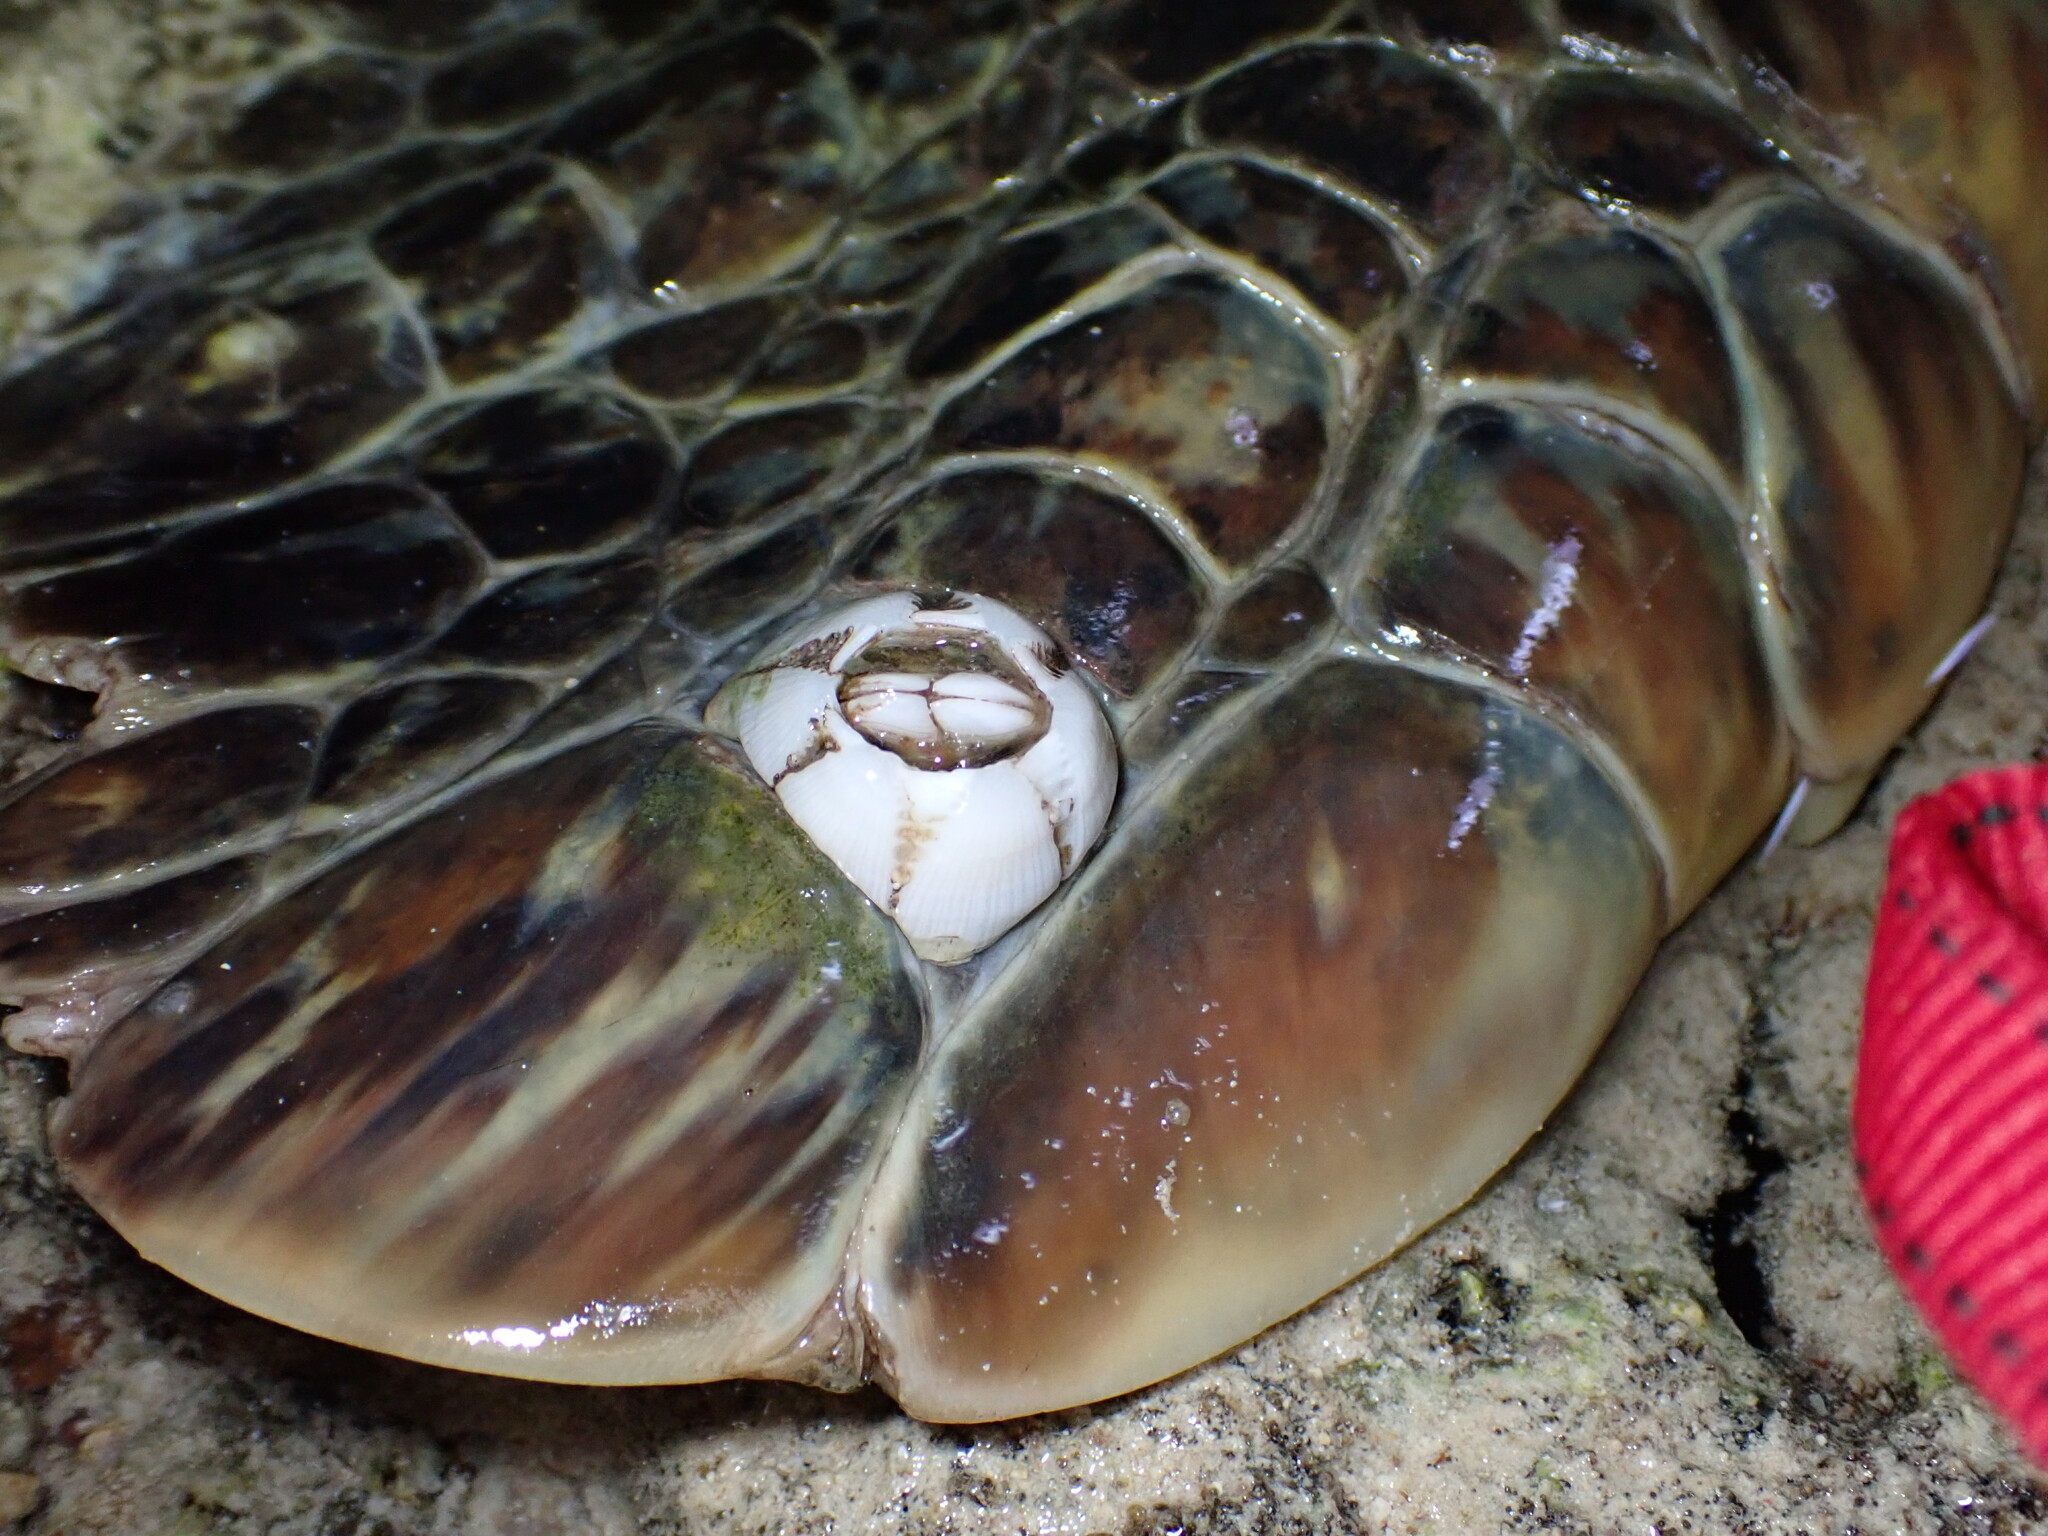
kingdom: Animalia
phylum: Chordata
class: Testudines
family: Cheloniidae
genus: Chelonia
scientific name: Chelonia mydas
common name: Green turtle
